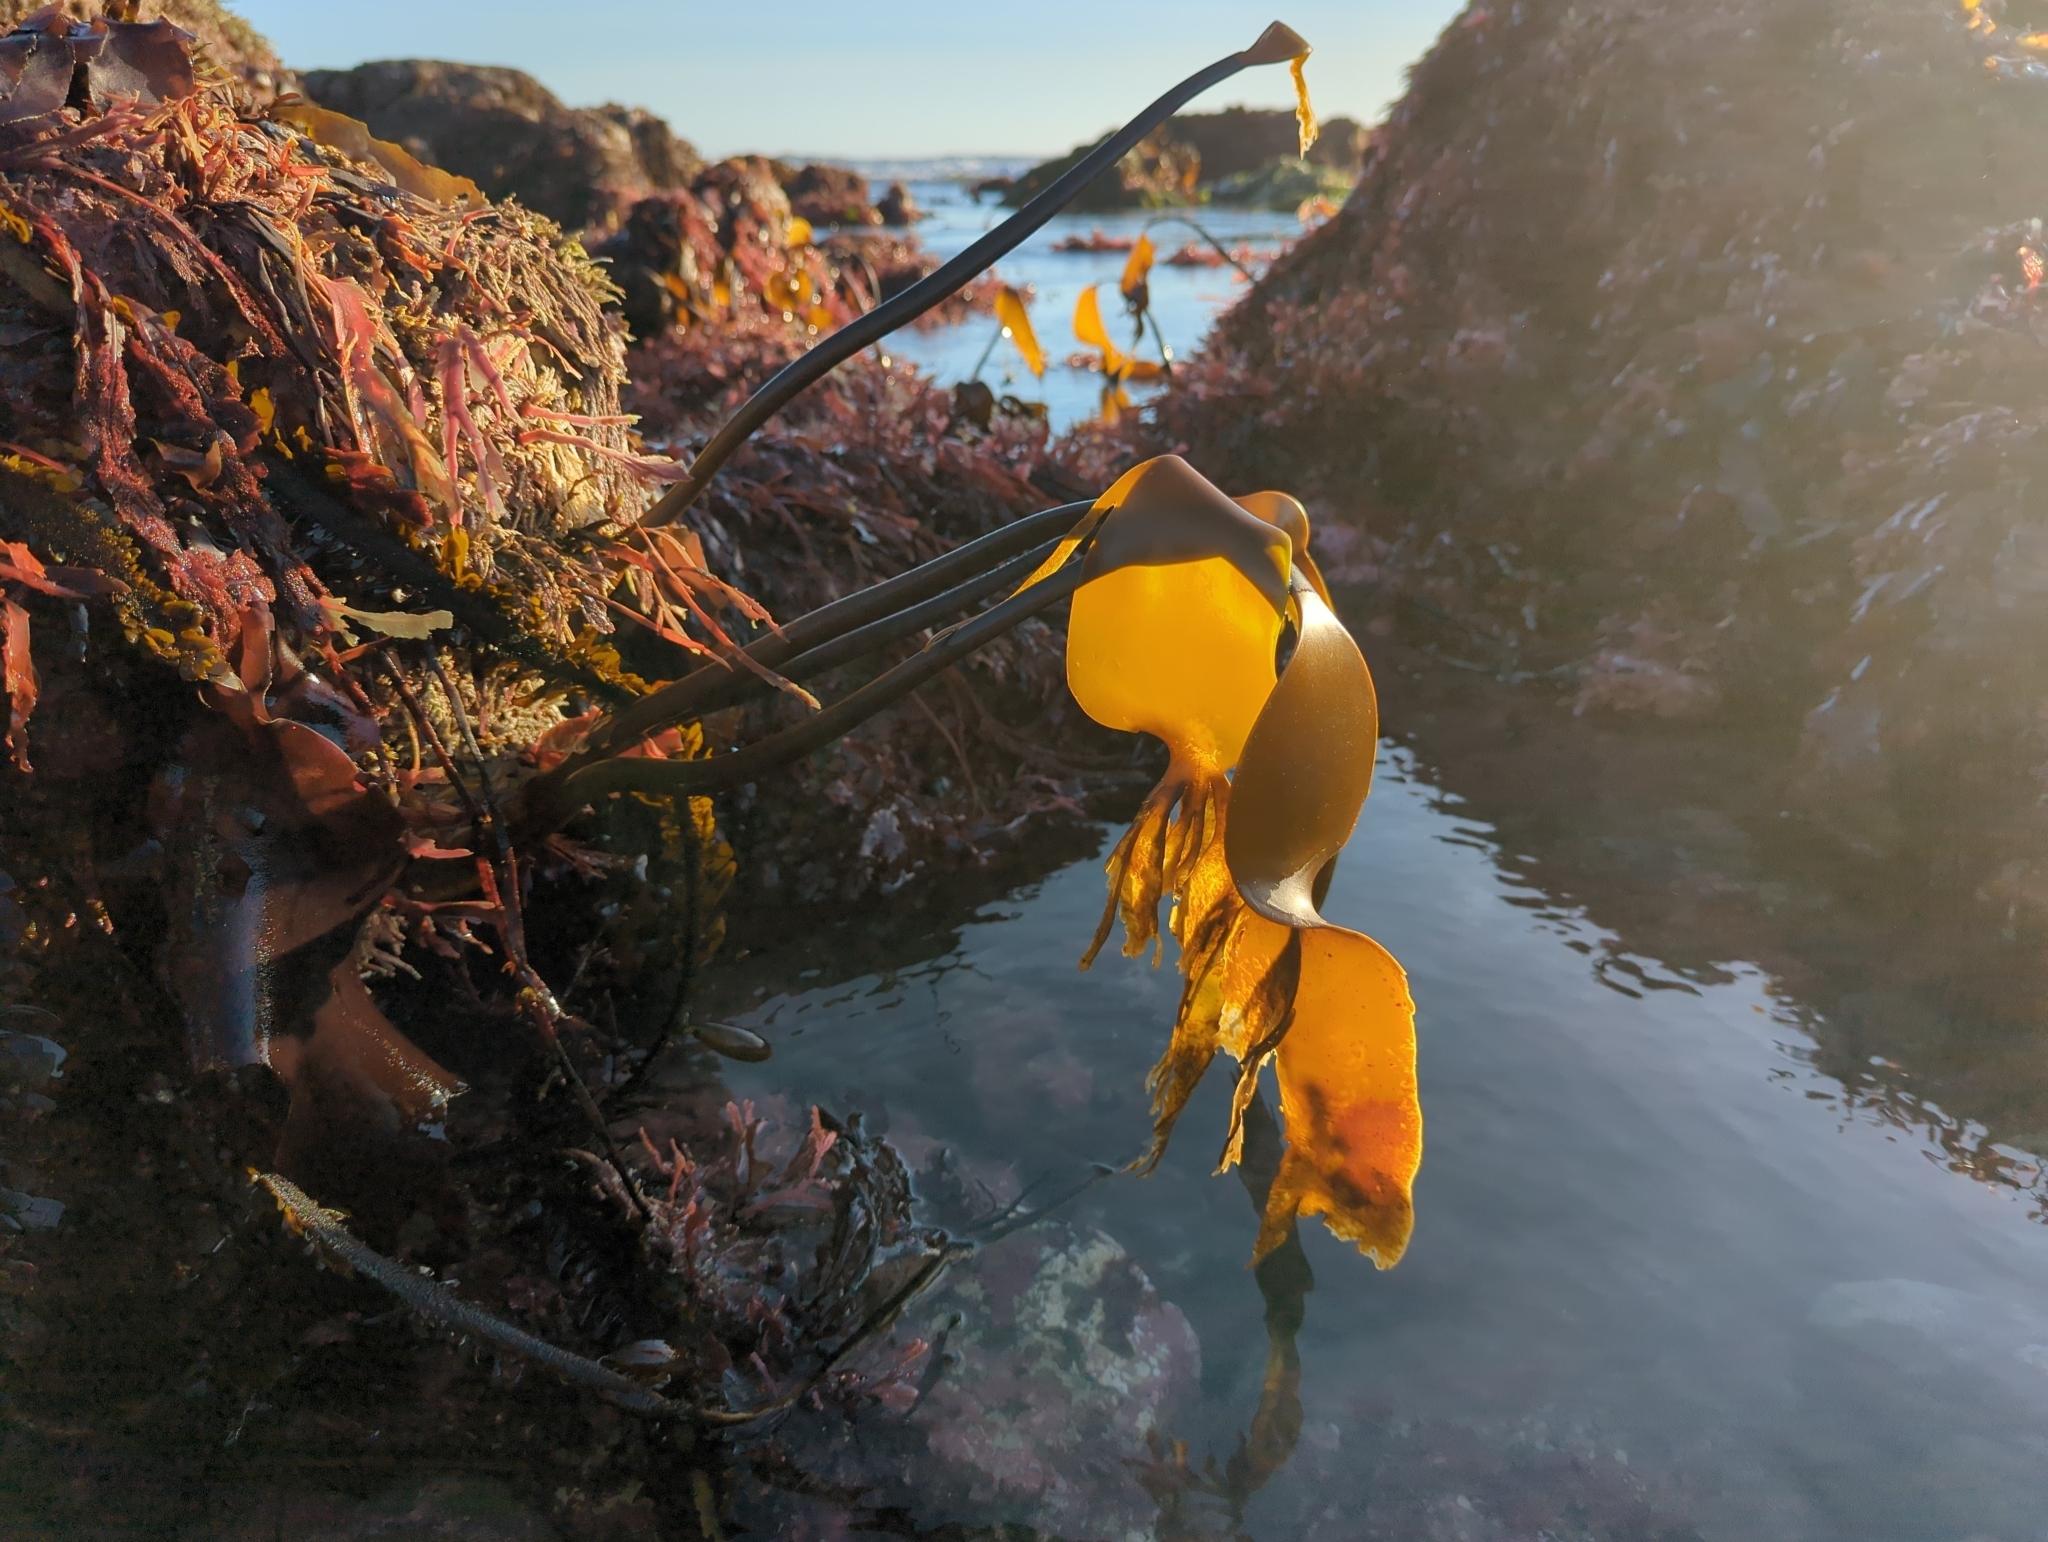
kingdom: Chromista
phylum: Ochrophyta
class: Phaeophyceae
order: Laminariales
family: Laminariaceae
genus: Laminaria
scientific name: Laminaria setchellii
